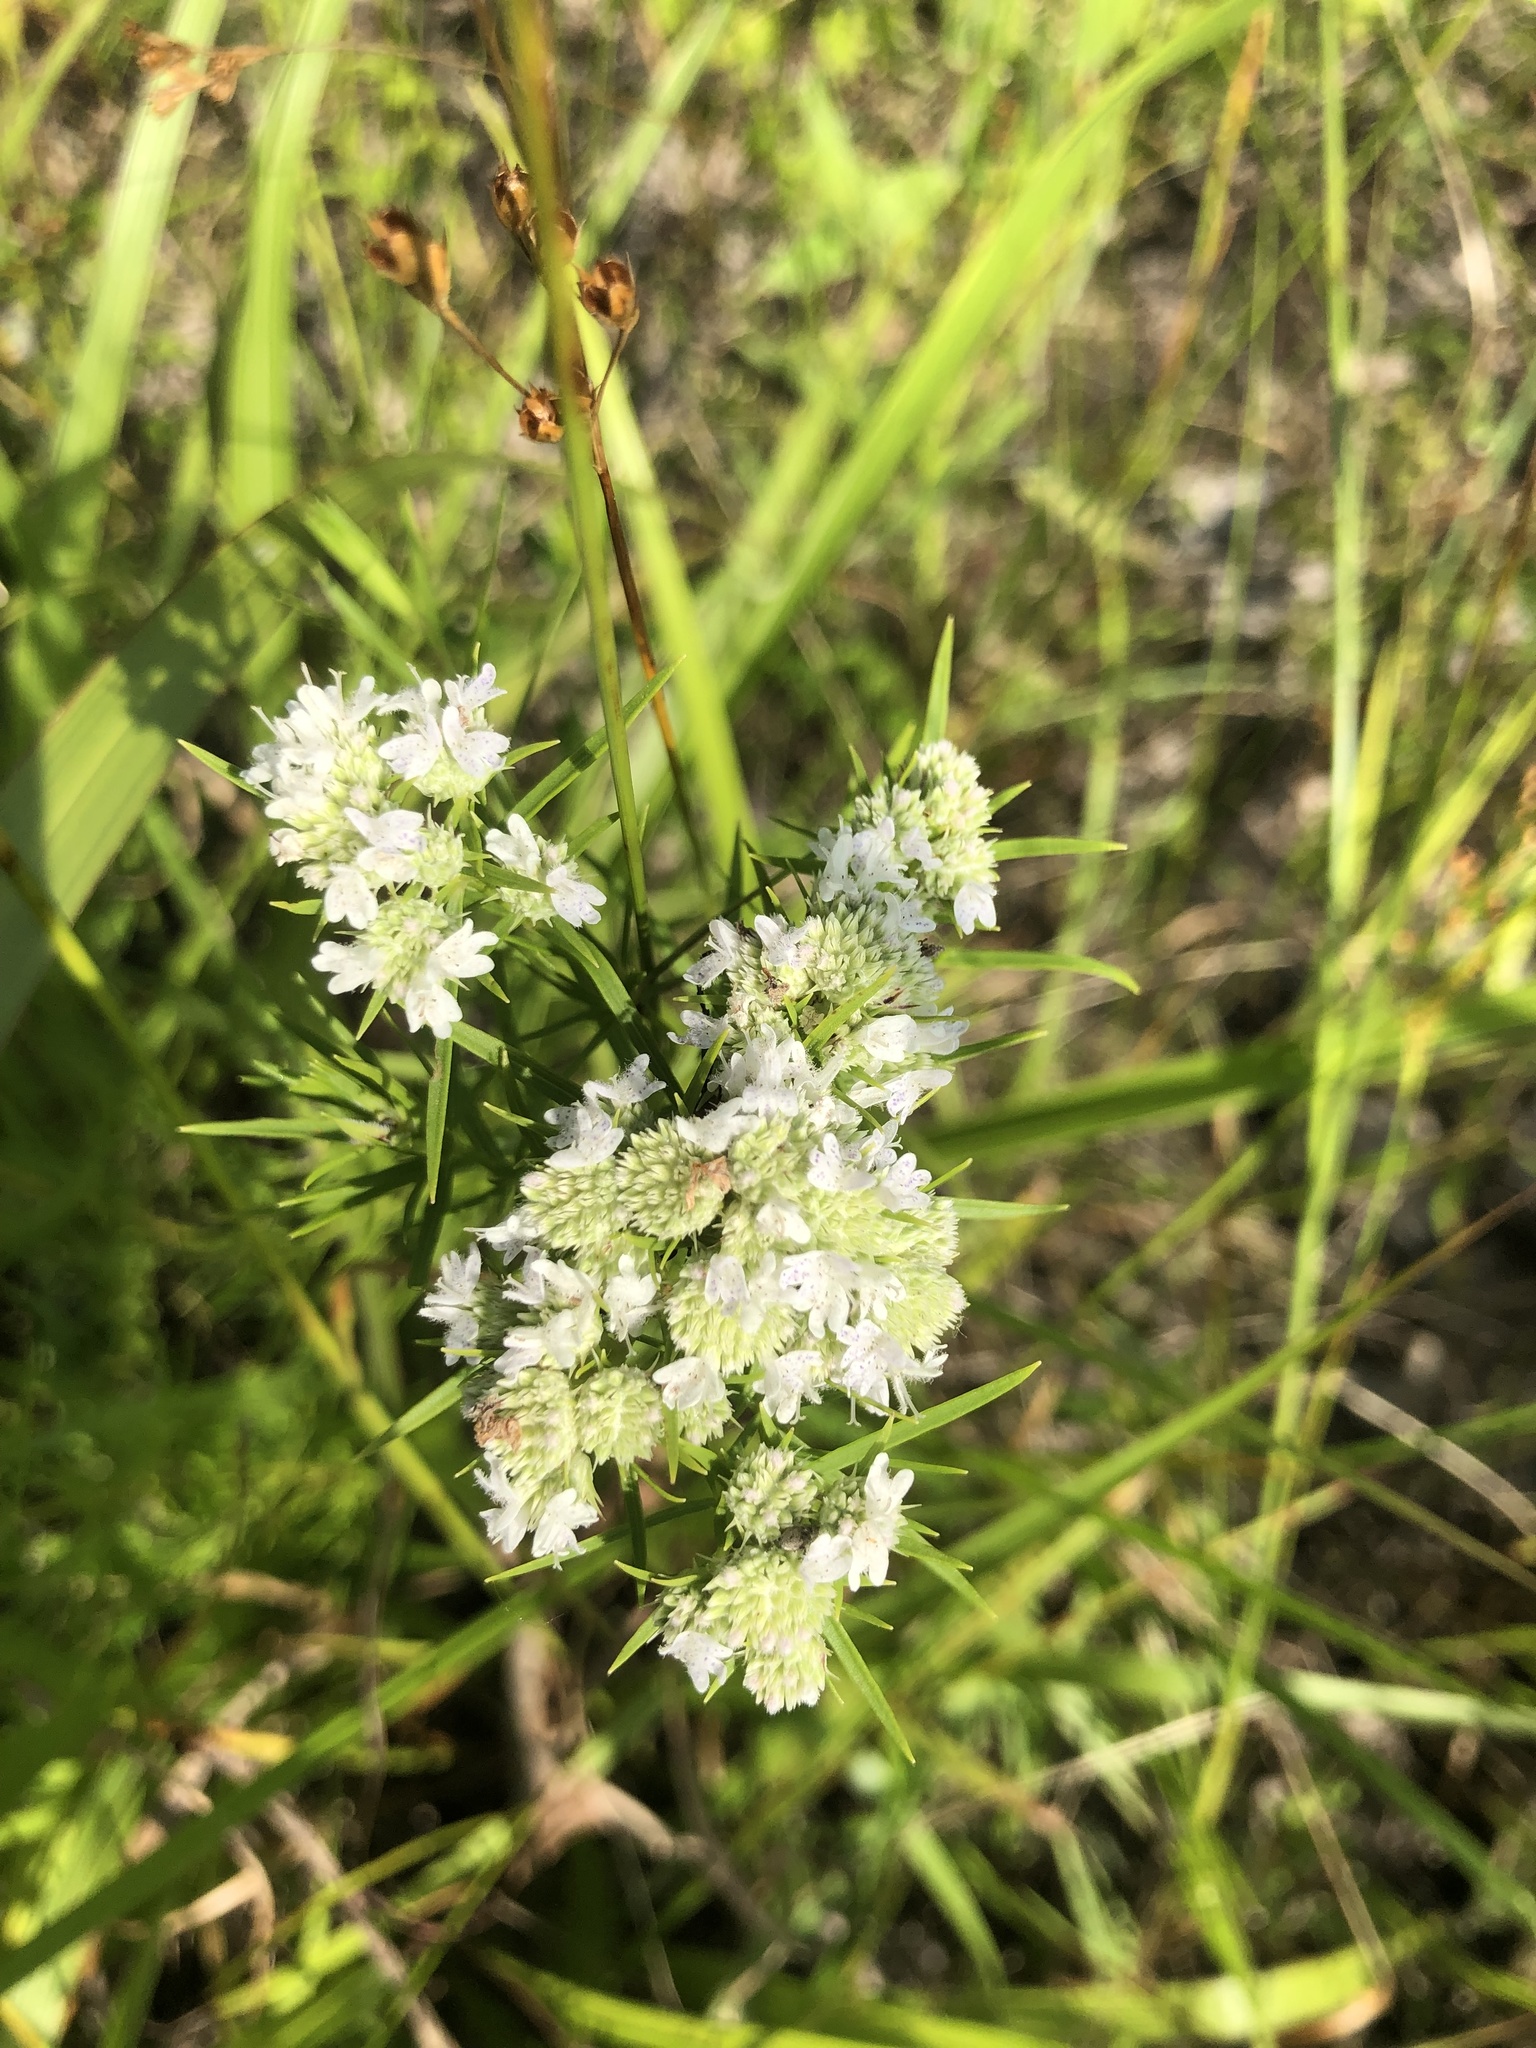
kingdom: Plantae
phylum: Tracheophyta
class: Magnoliopsida
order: Lamiales
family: Lamiaceae
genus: Pycnanthemum
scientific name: Pycnanthemum tenuifolium
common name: Narrow-leaf mountain-mint
